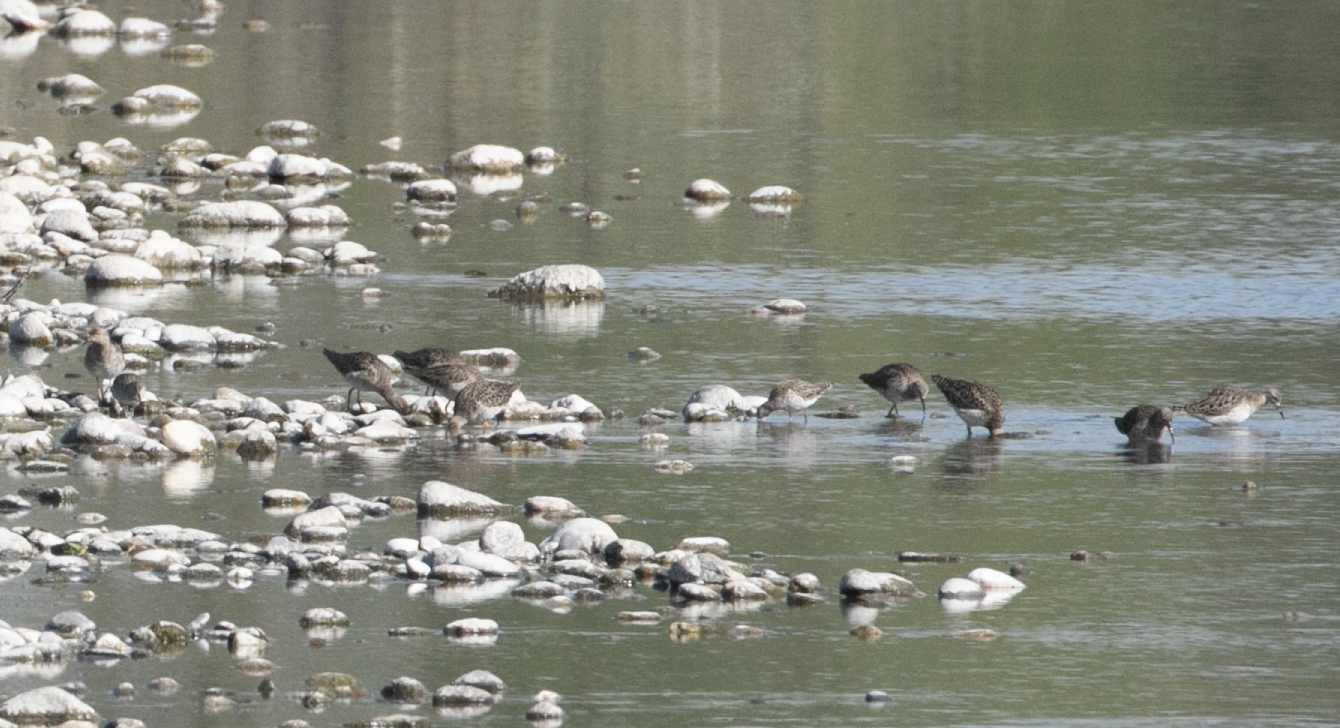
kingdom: Animalia
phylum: Chordata
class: Aves
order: Charadriiformes
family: Scolopacidae
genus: Calidris
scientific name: Calidris pugnax
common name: Ruff
